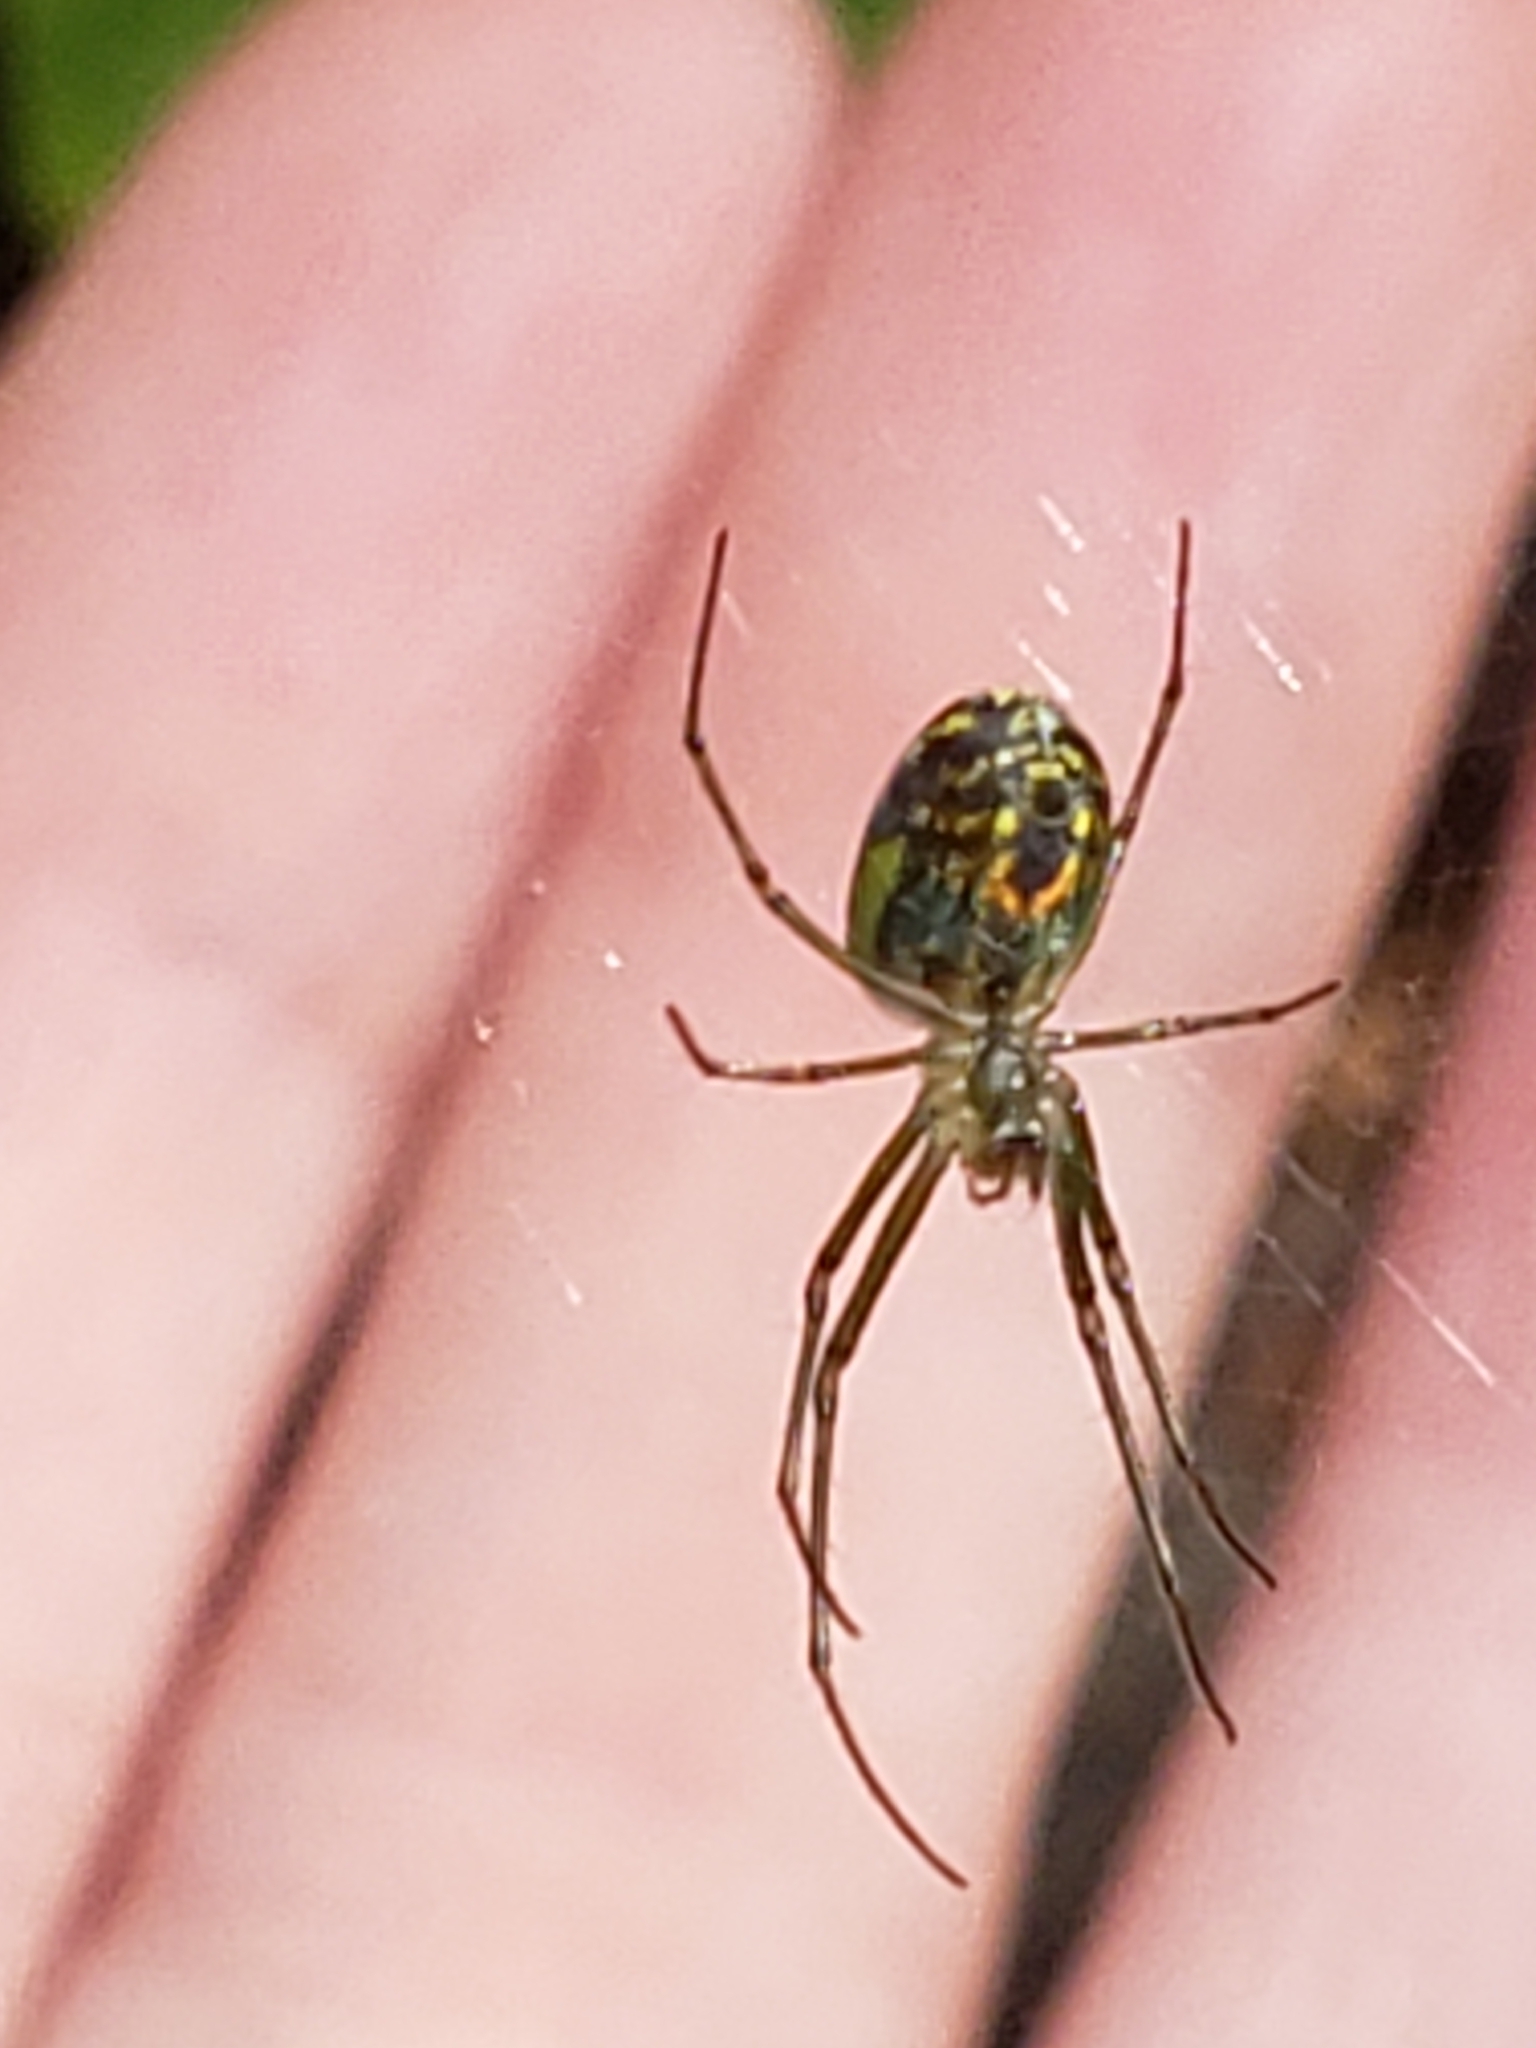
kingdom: Animalia
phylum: Arthropoda
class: Arachnida
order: Araneae
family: Tetragnathidae
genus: Leucauge
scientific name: Leucauge venusta
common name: Longjawed orb weavers
